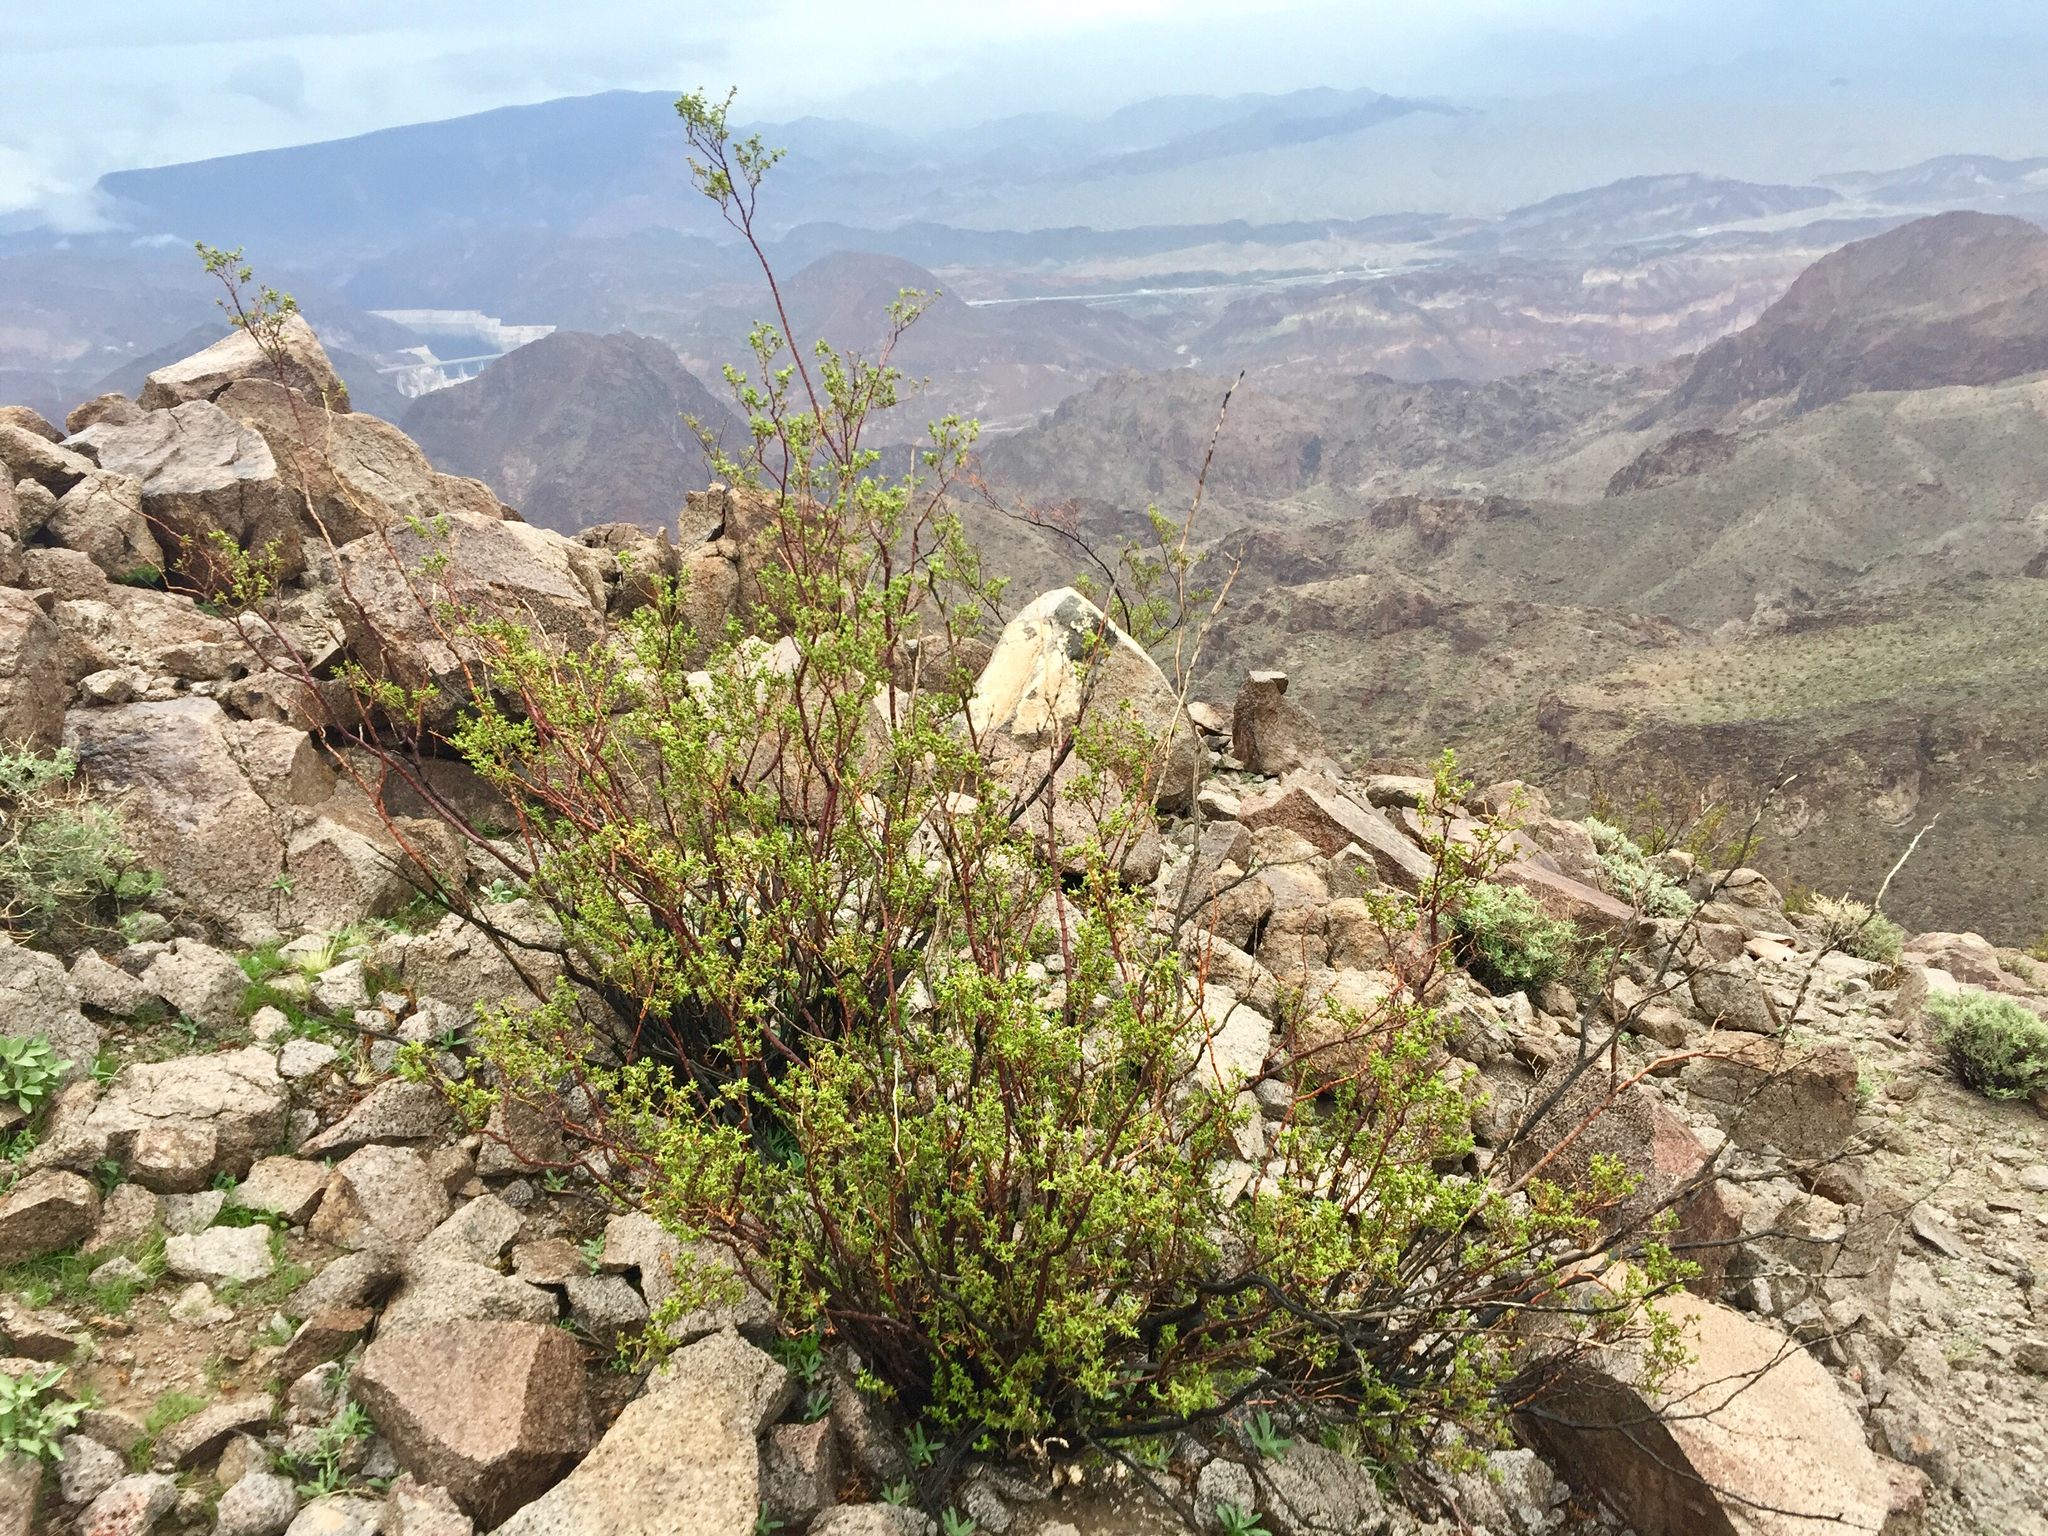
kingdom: Plantae
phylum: Tracheophyta
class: Magnoliopsida
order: Zygophyllales
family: Zygophyllaceae
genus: Larrea
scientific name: Larrea tridentata
